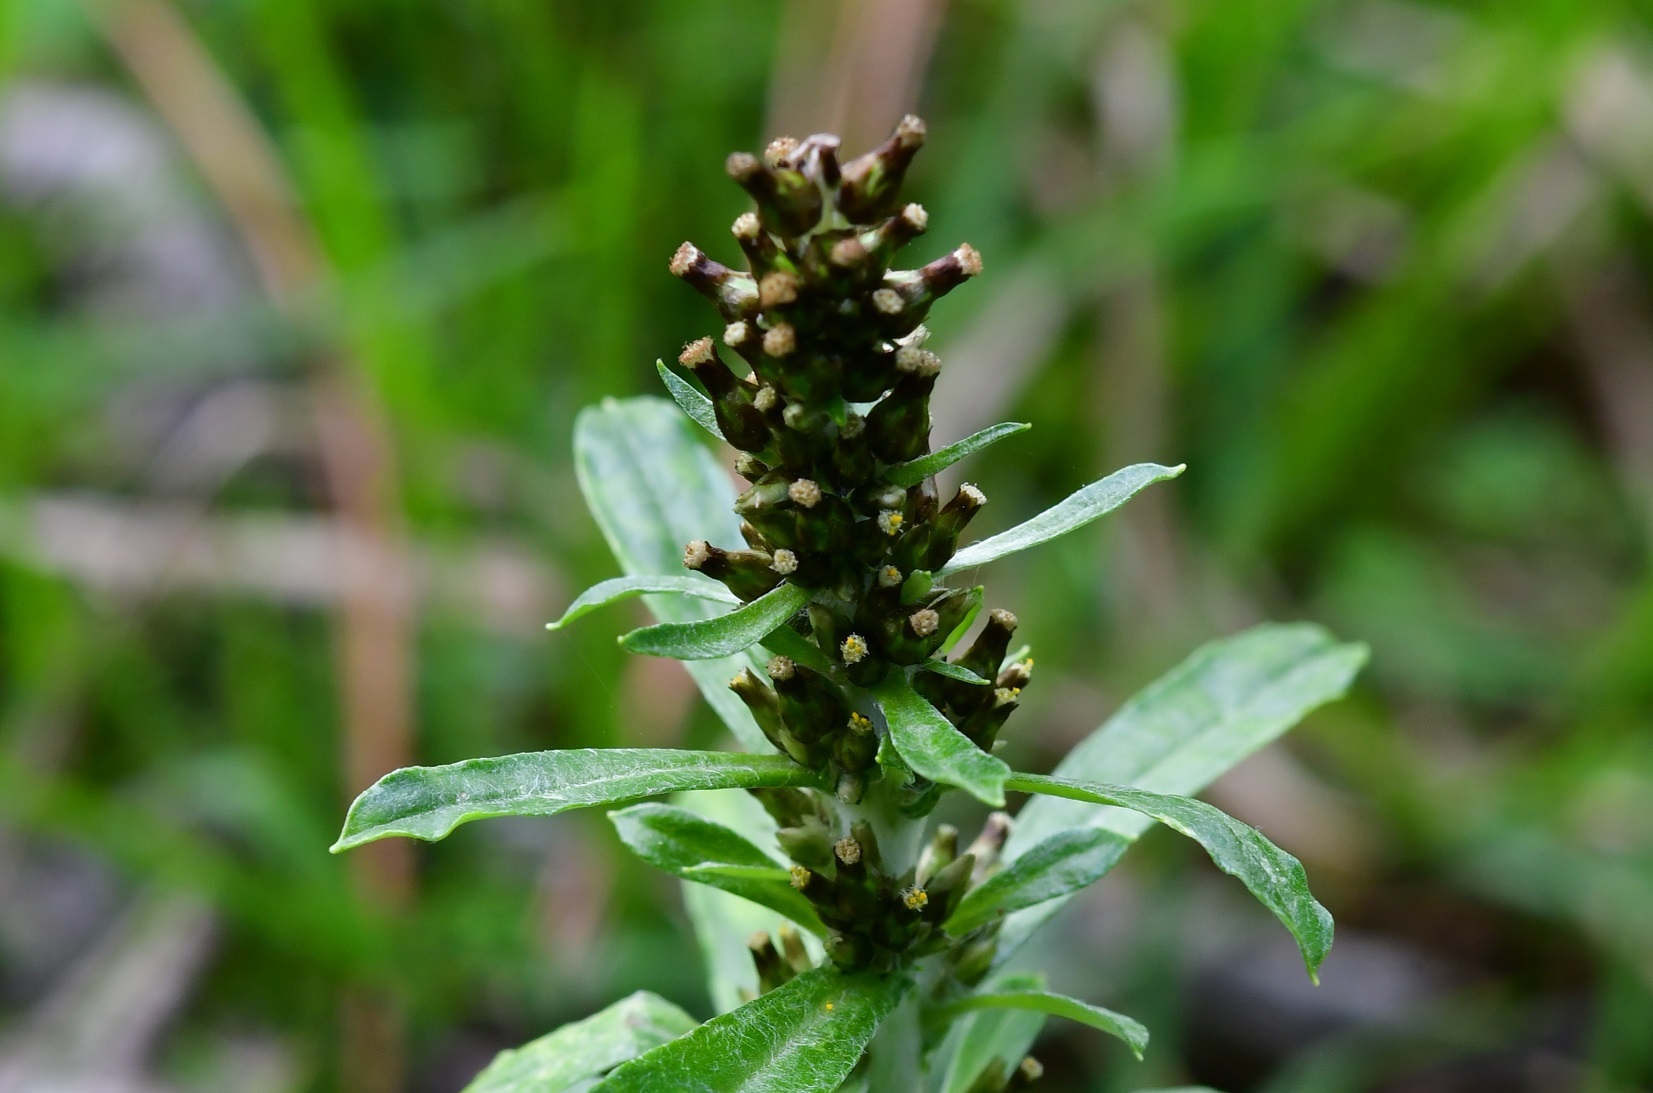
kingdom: Plantae
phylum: Tracheophyta
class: Magnoliopsida
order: Asterales
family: Asteraceae
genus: Gamochaeta
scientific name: Gamochaeta americana
